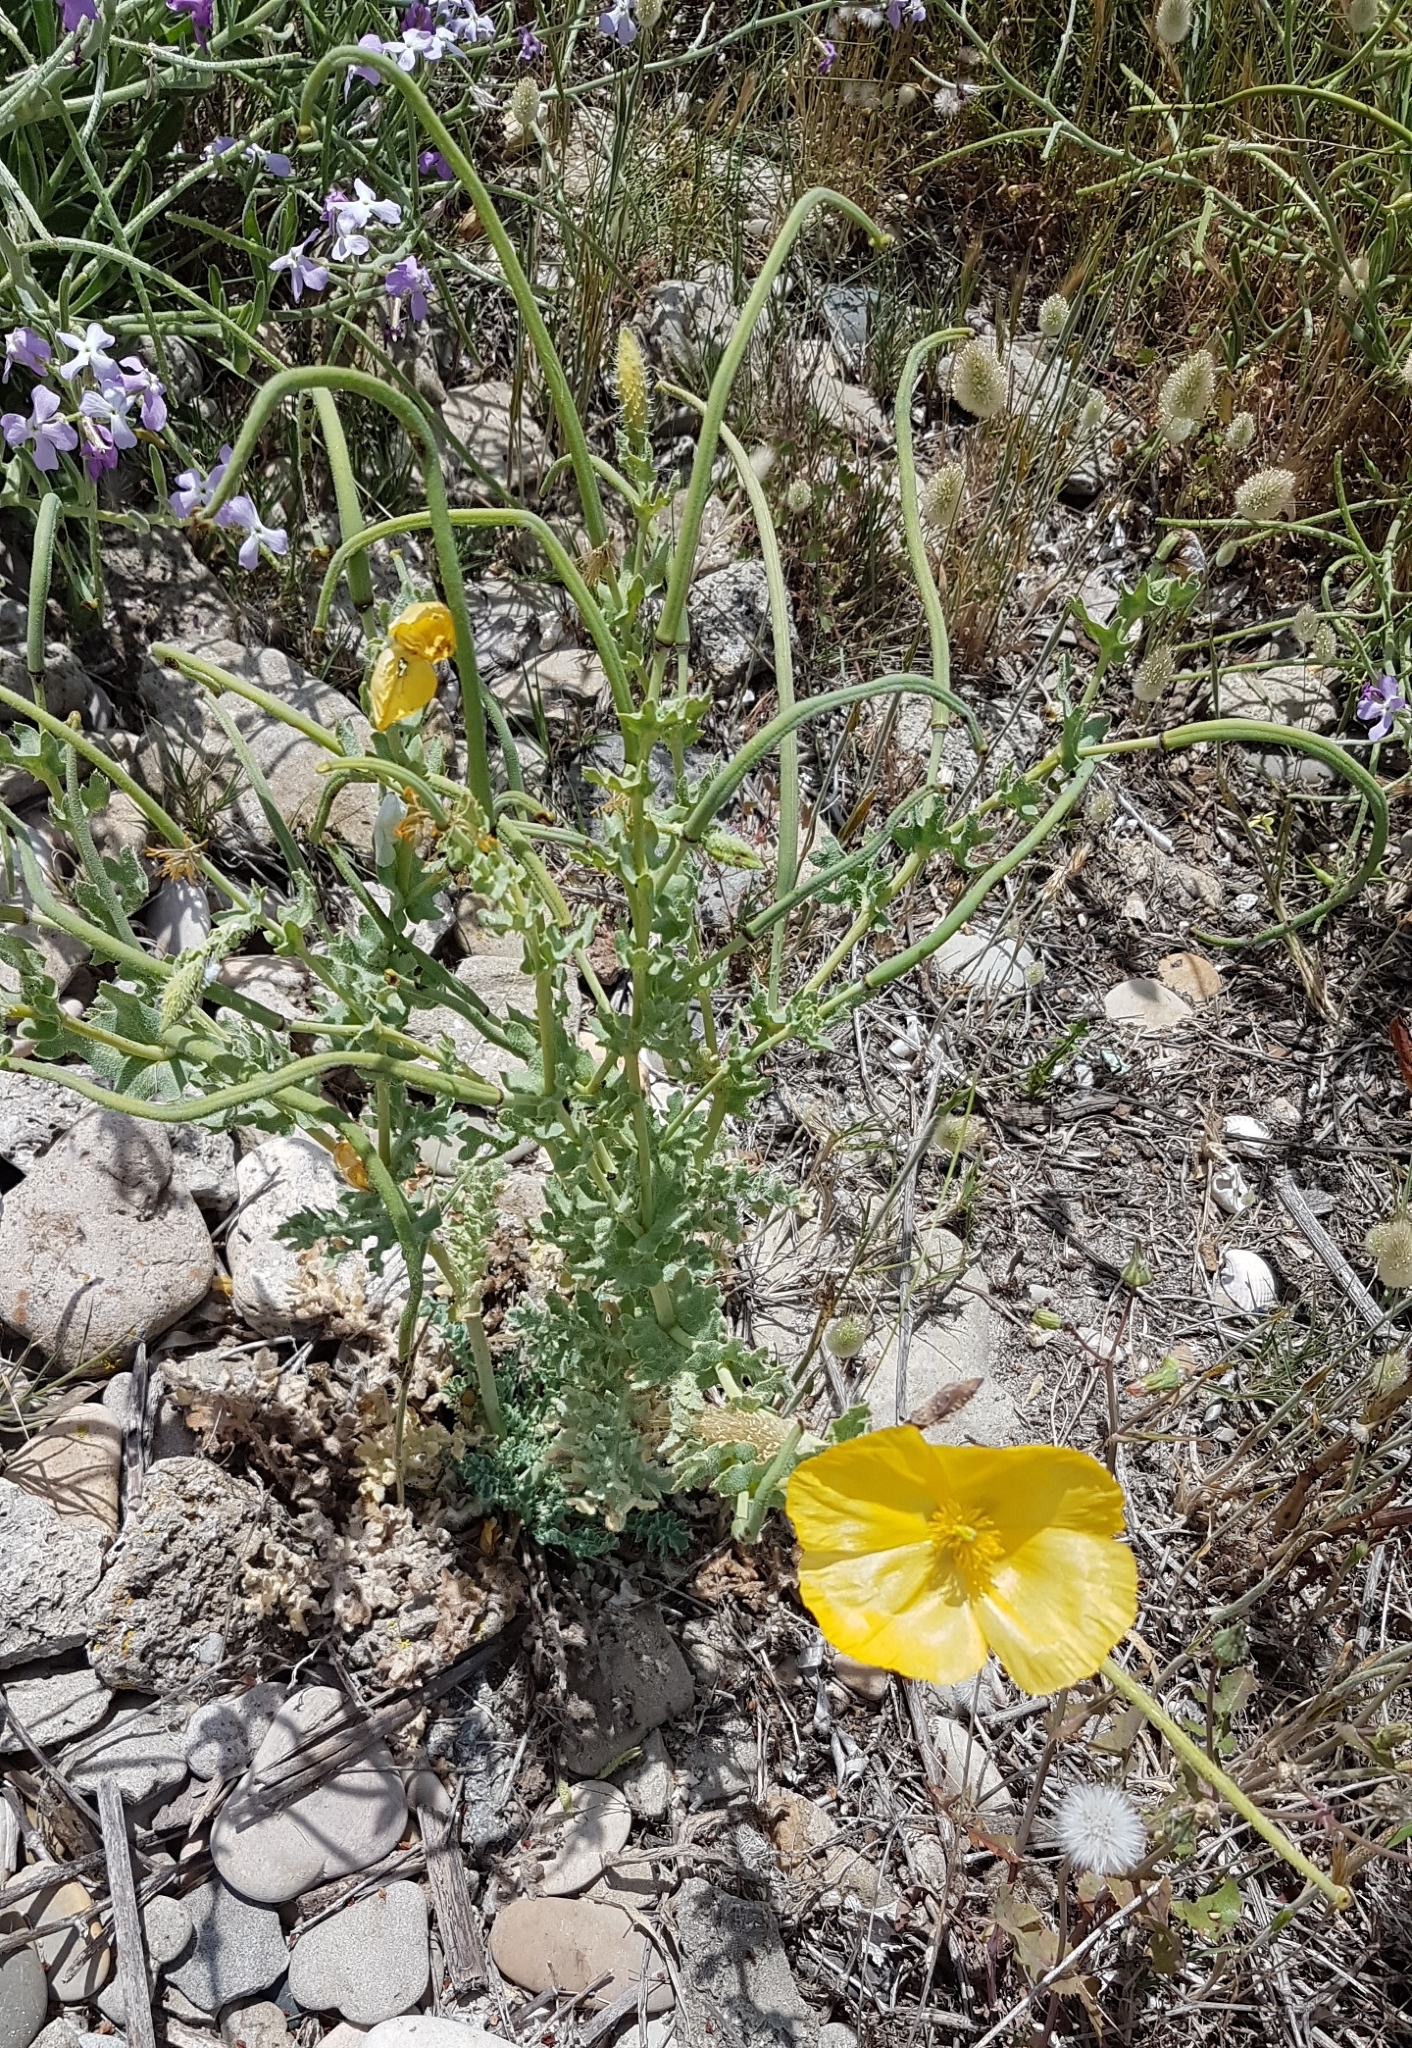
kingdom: Plantae
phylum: Tracheophyta
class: Magnoliopsida
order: Ranunculales
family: Papaveraceae
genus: Glaucium
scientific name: Glaucium flavum
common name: Yellow horned-poppy
